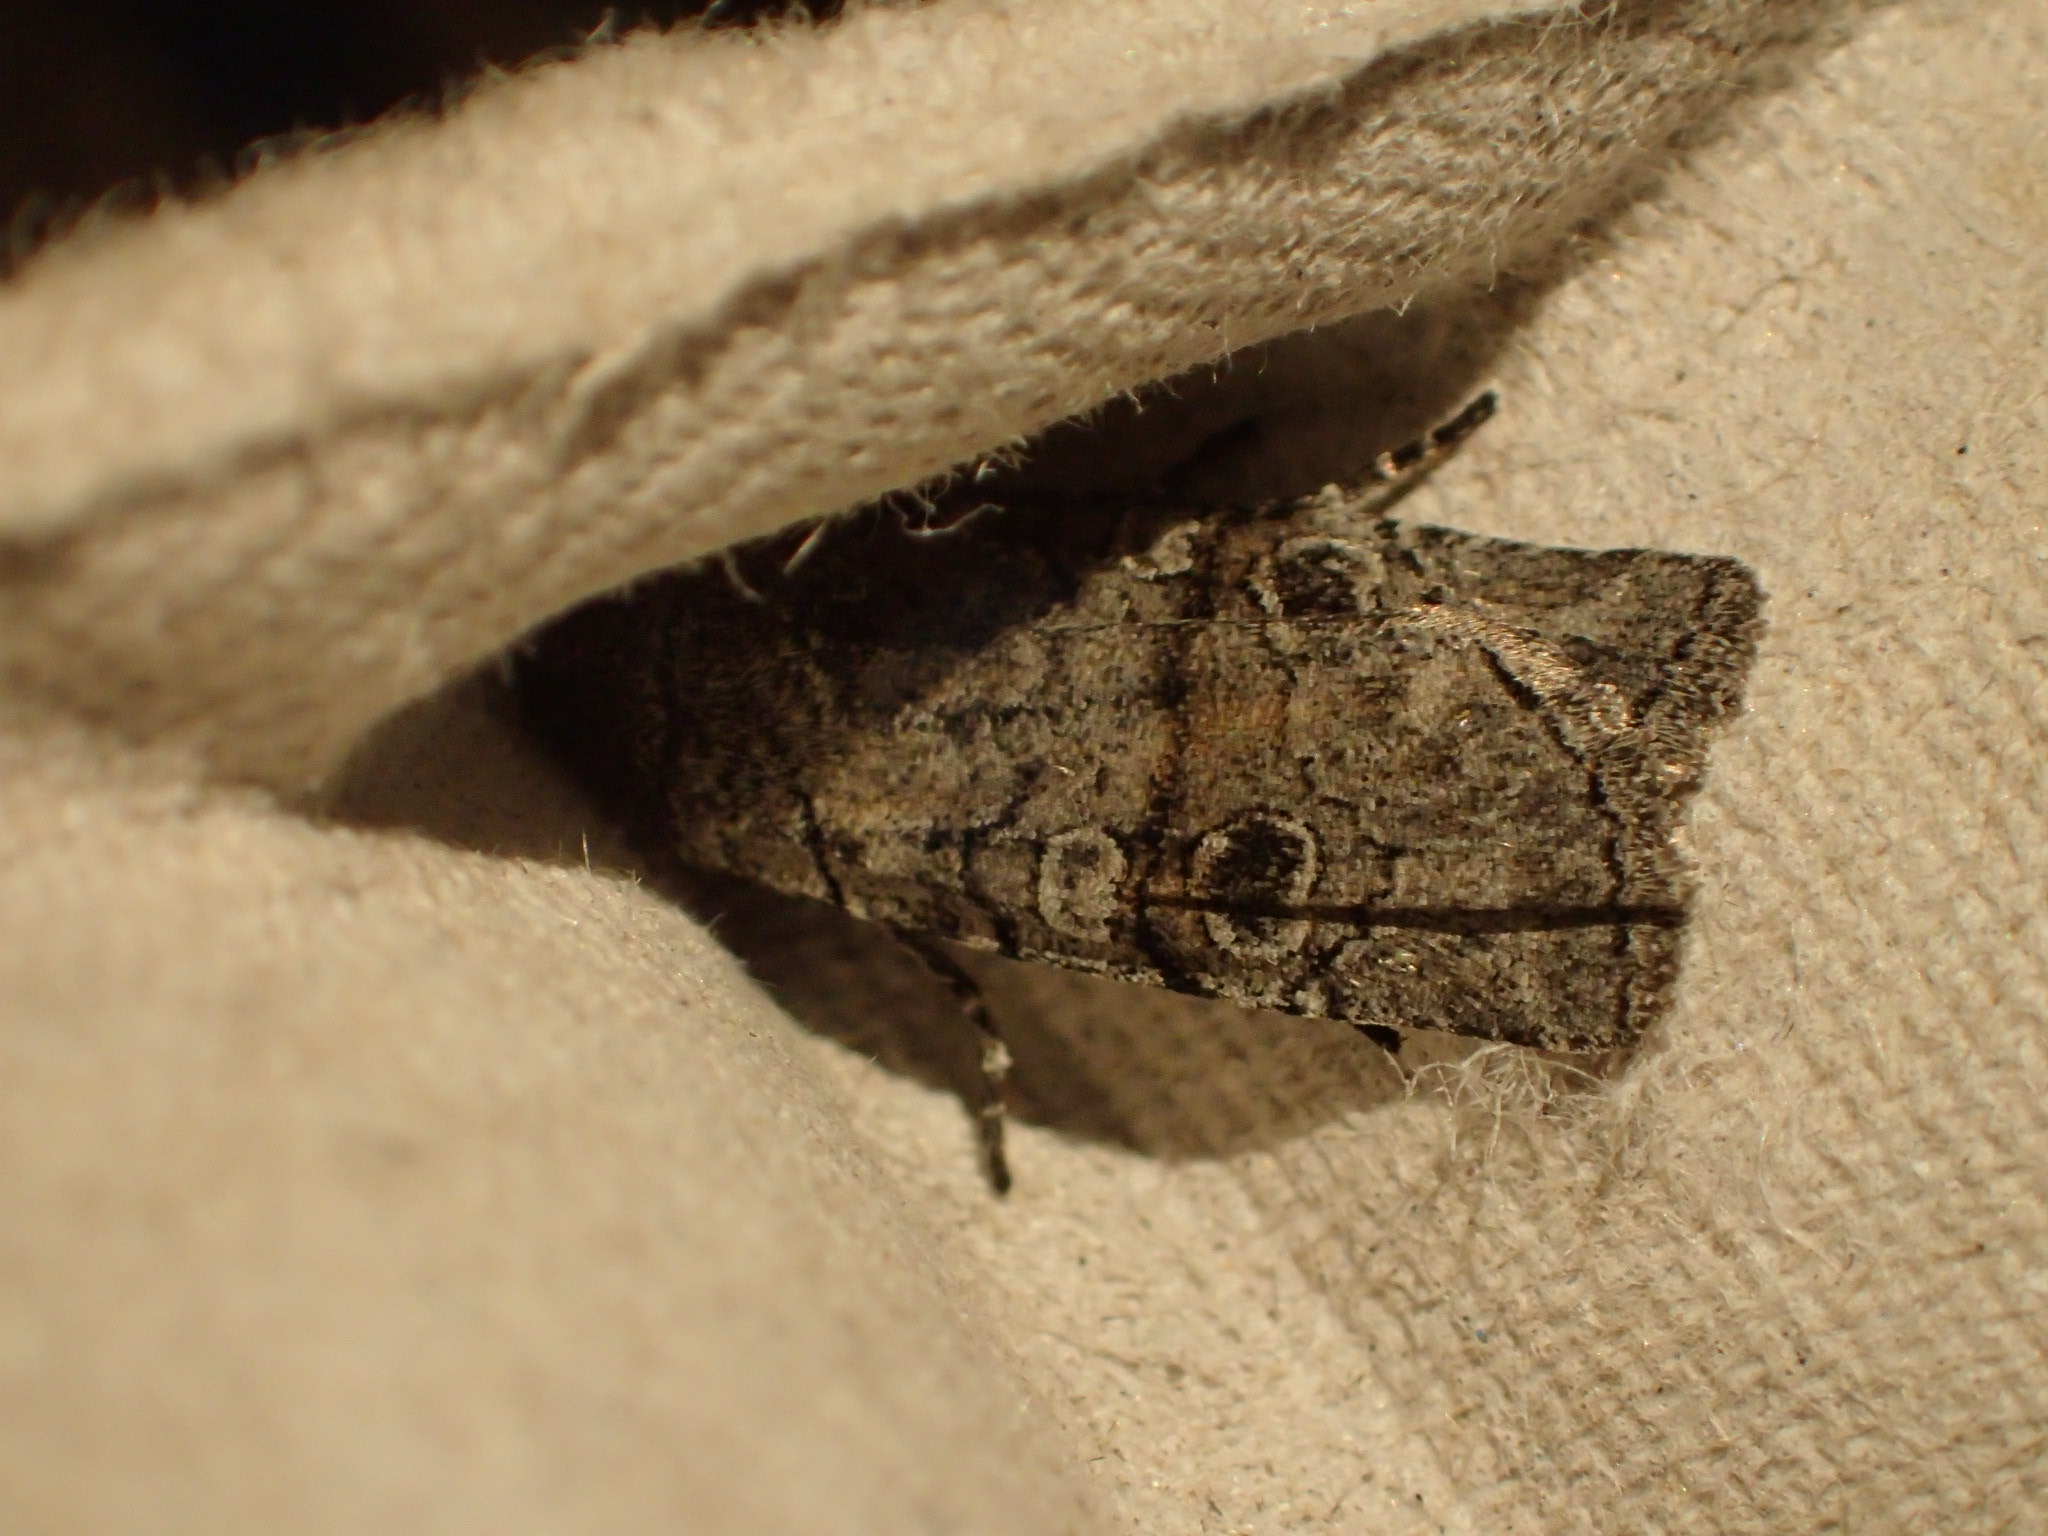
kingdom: Animalia
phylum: Arthropoda
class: Insecta
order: Lepidoptera
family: Noctuidae
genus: Litholomia
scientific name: Litholomia napaea
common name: False pinion moth
